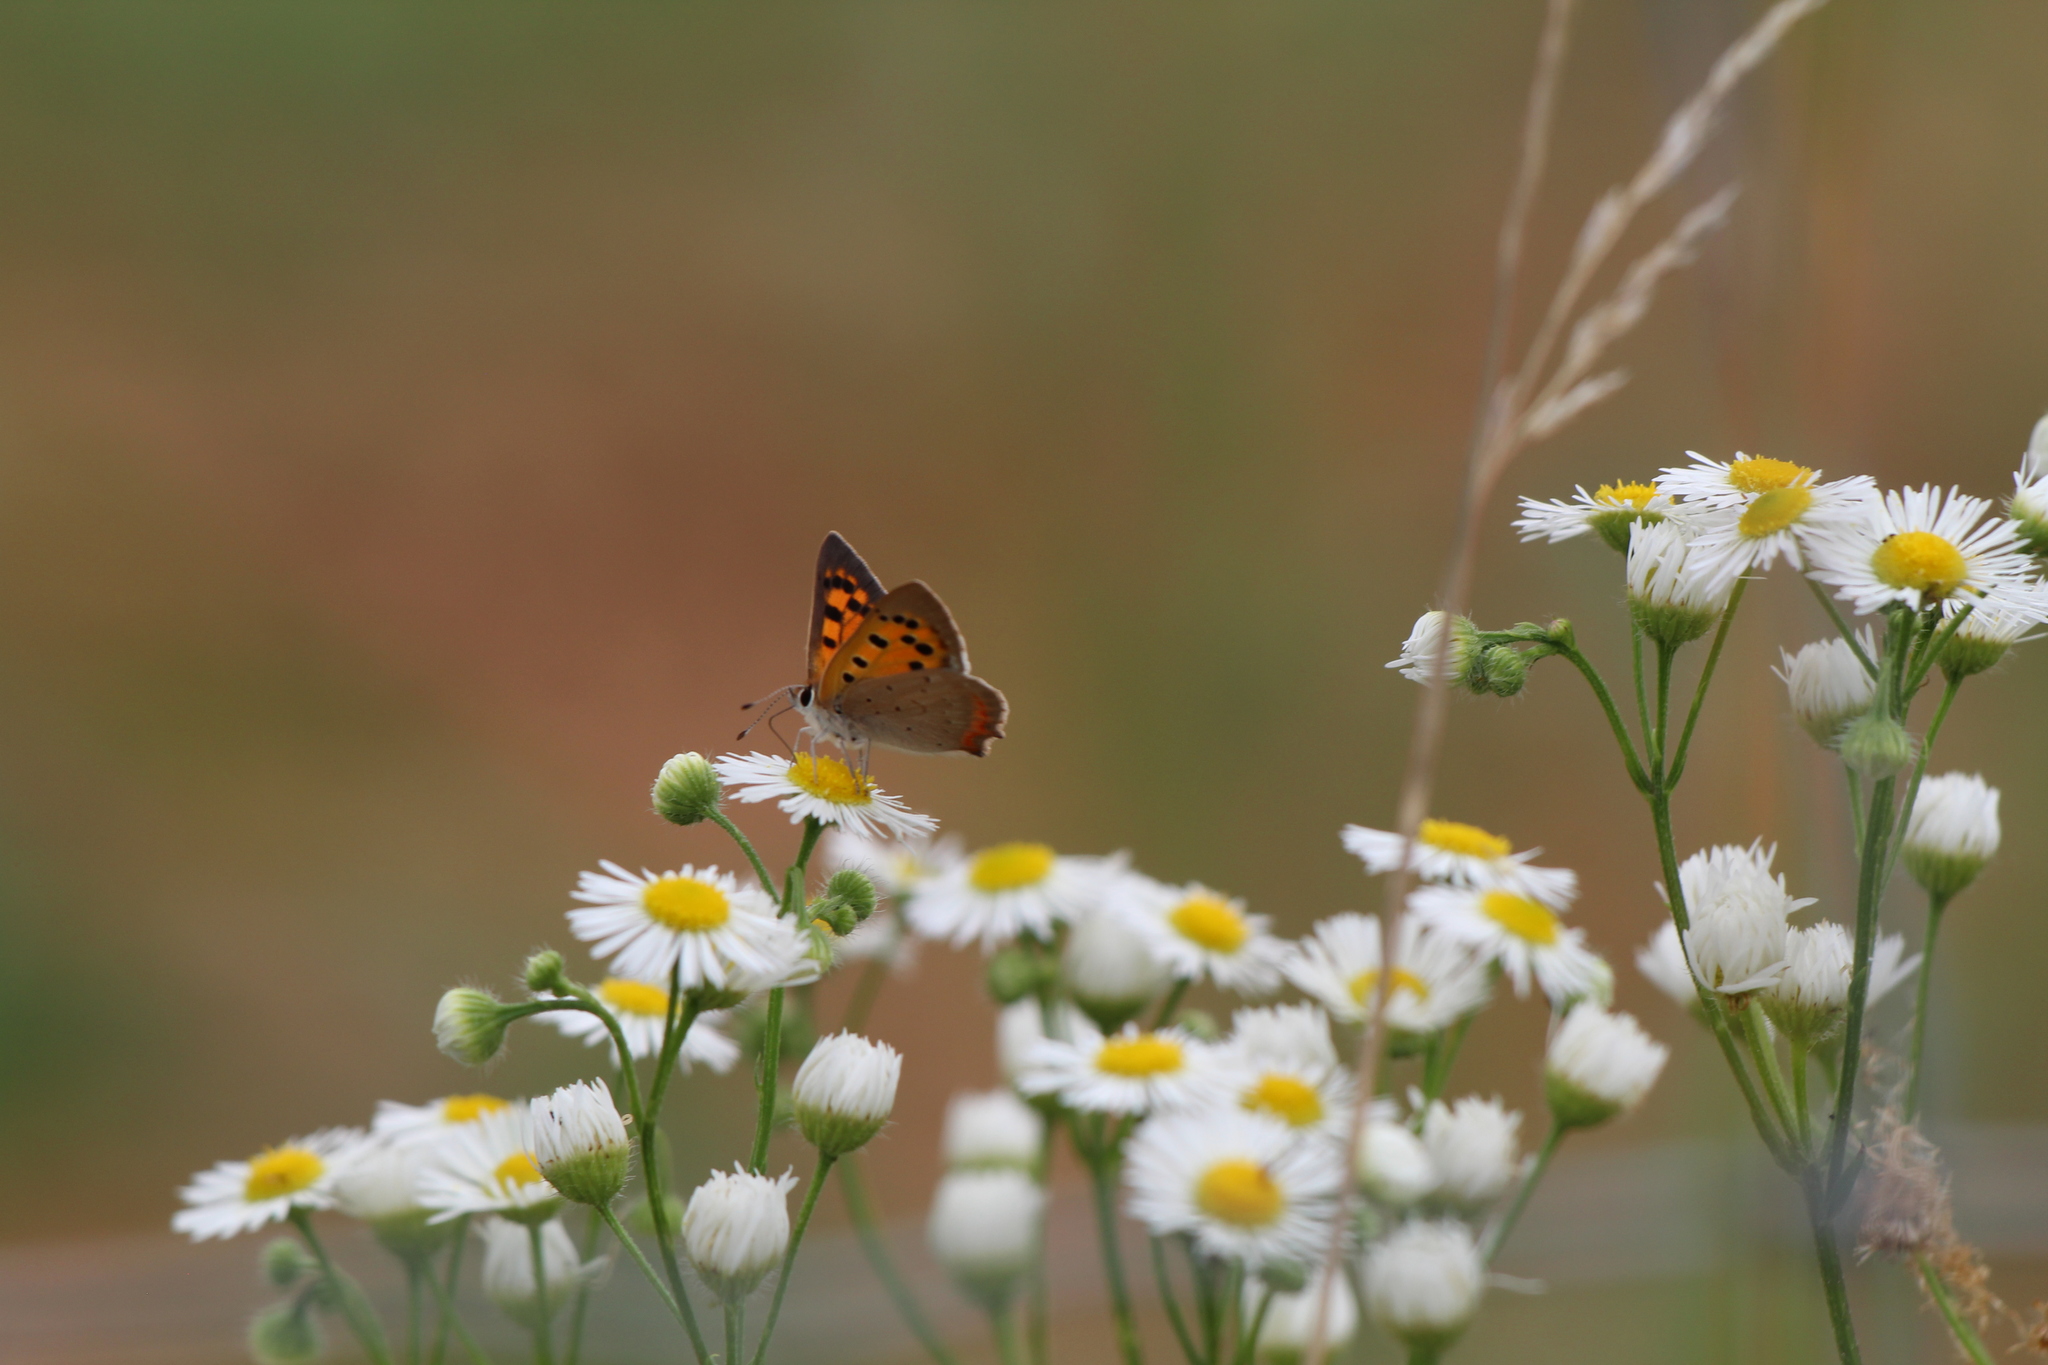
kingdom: Animalia
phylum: Arthropoda
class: Insecta
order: Lepidoptera
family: Lycaenidae
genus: Lycaena
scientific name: Lycaena phlaeas
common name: Small copper
